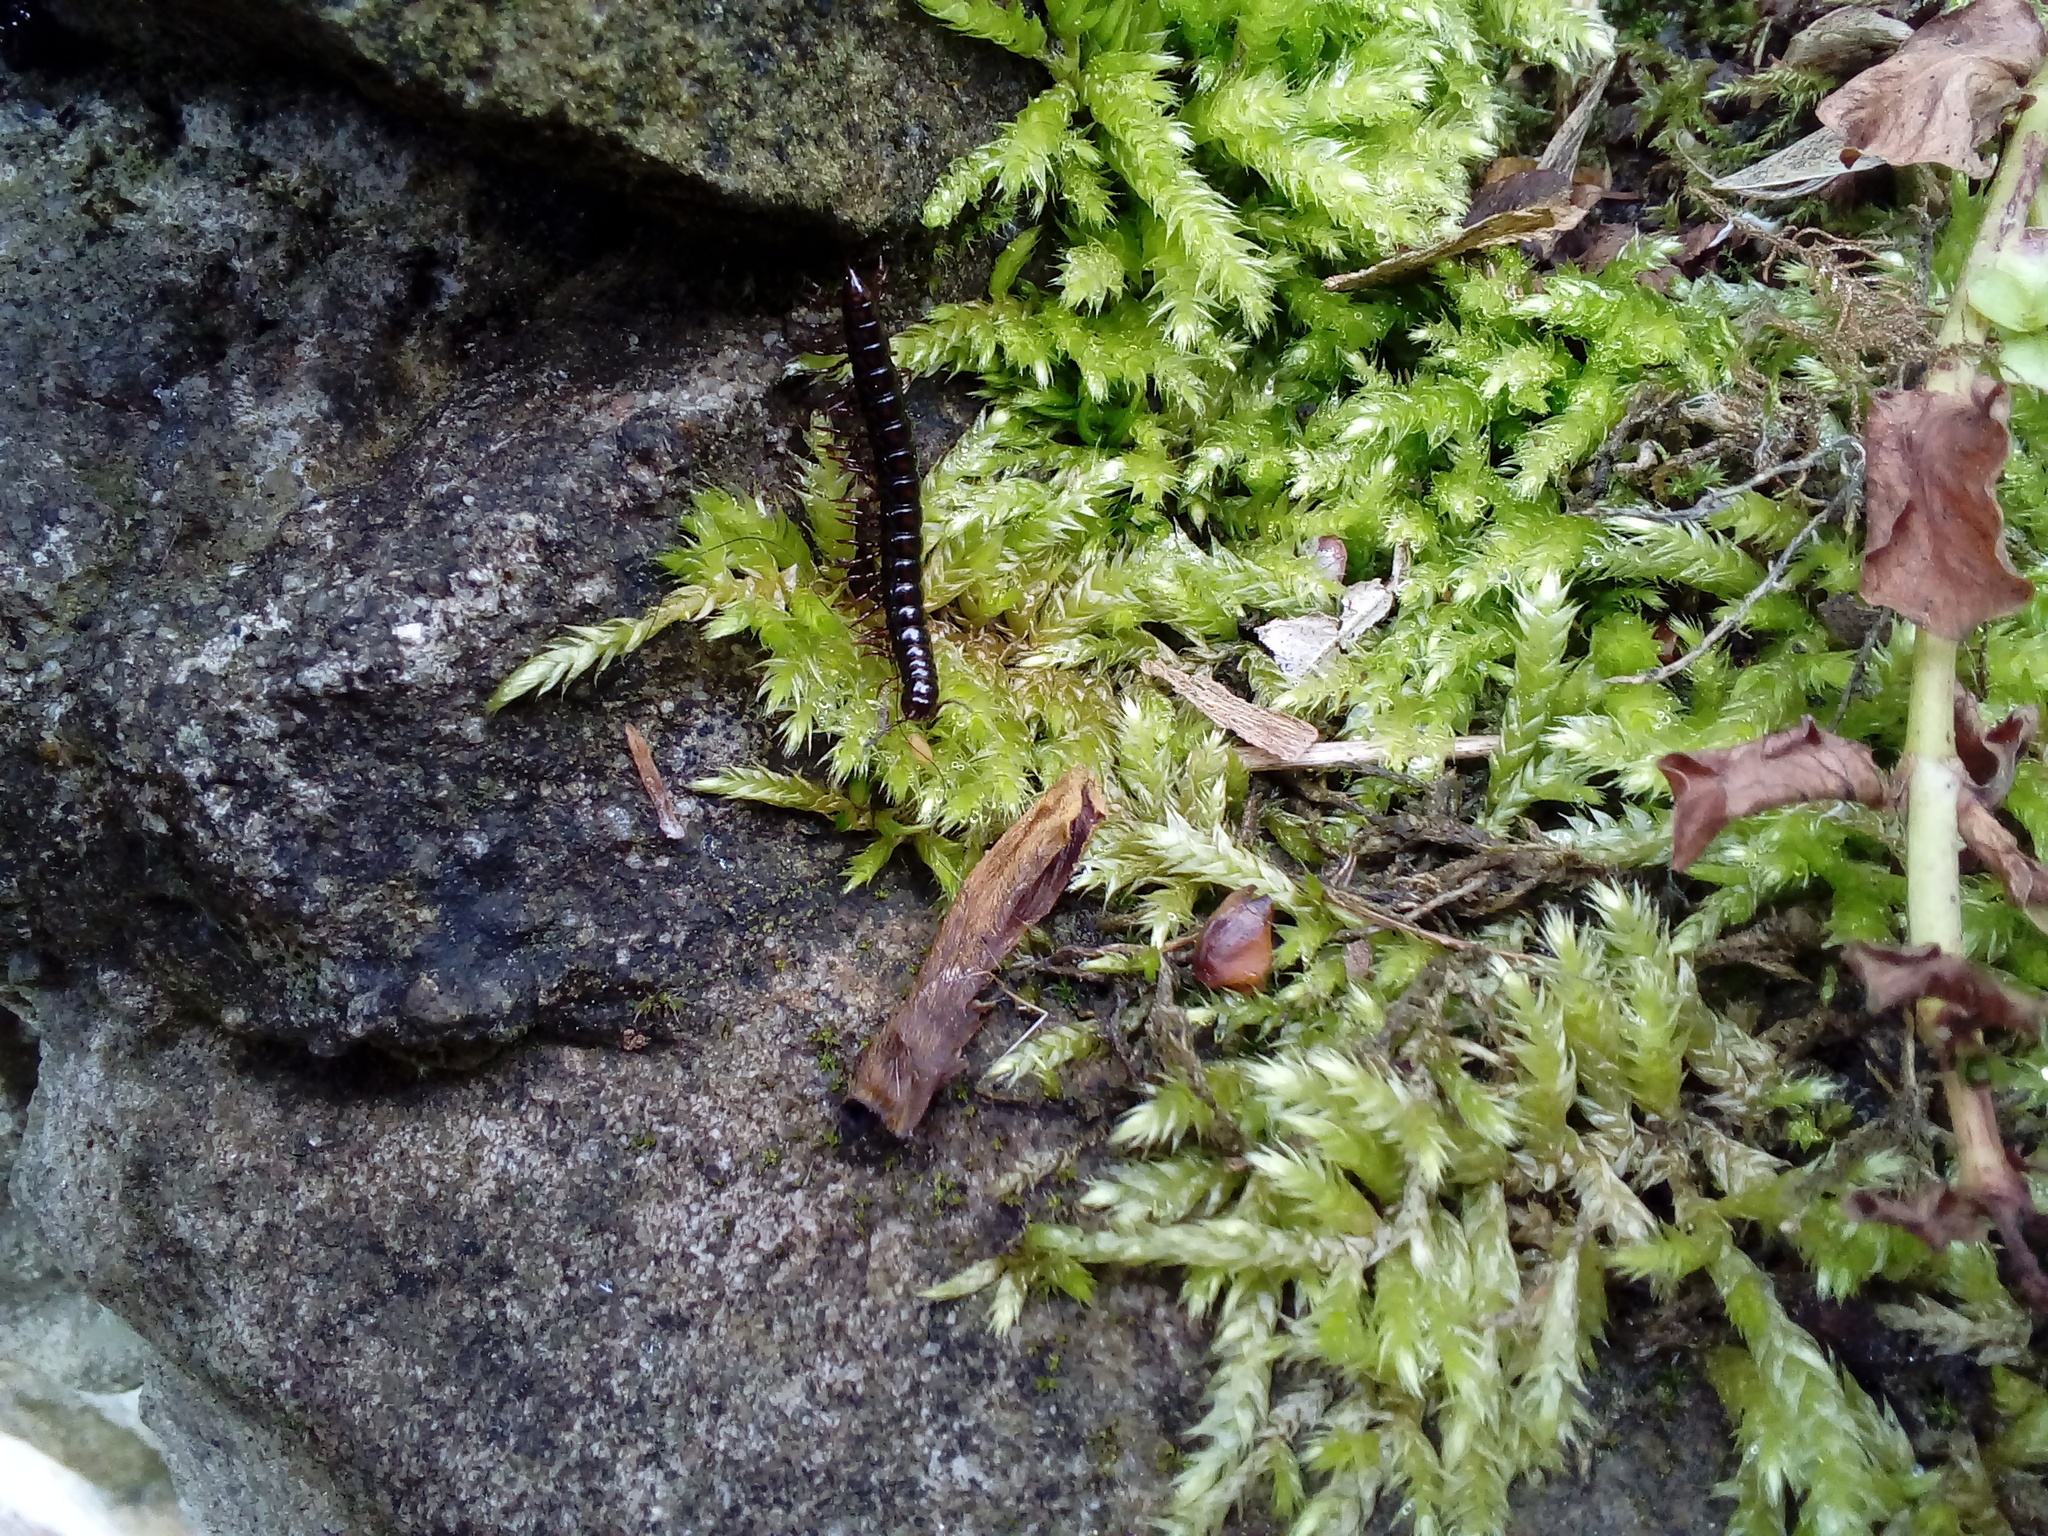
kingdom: Animalia
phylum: Arthropoda
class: Diplopoda
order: Polydesmida
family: Paradoxosomatidae
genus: Strongylosoma
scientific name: Strongylosoma stigmatosus
